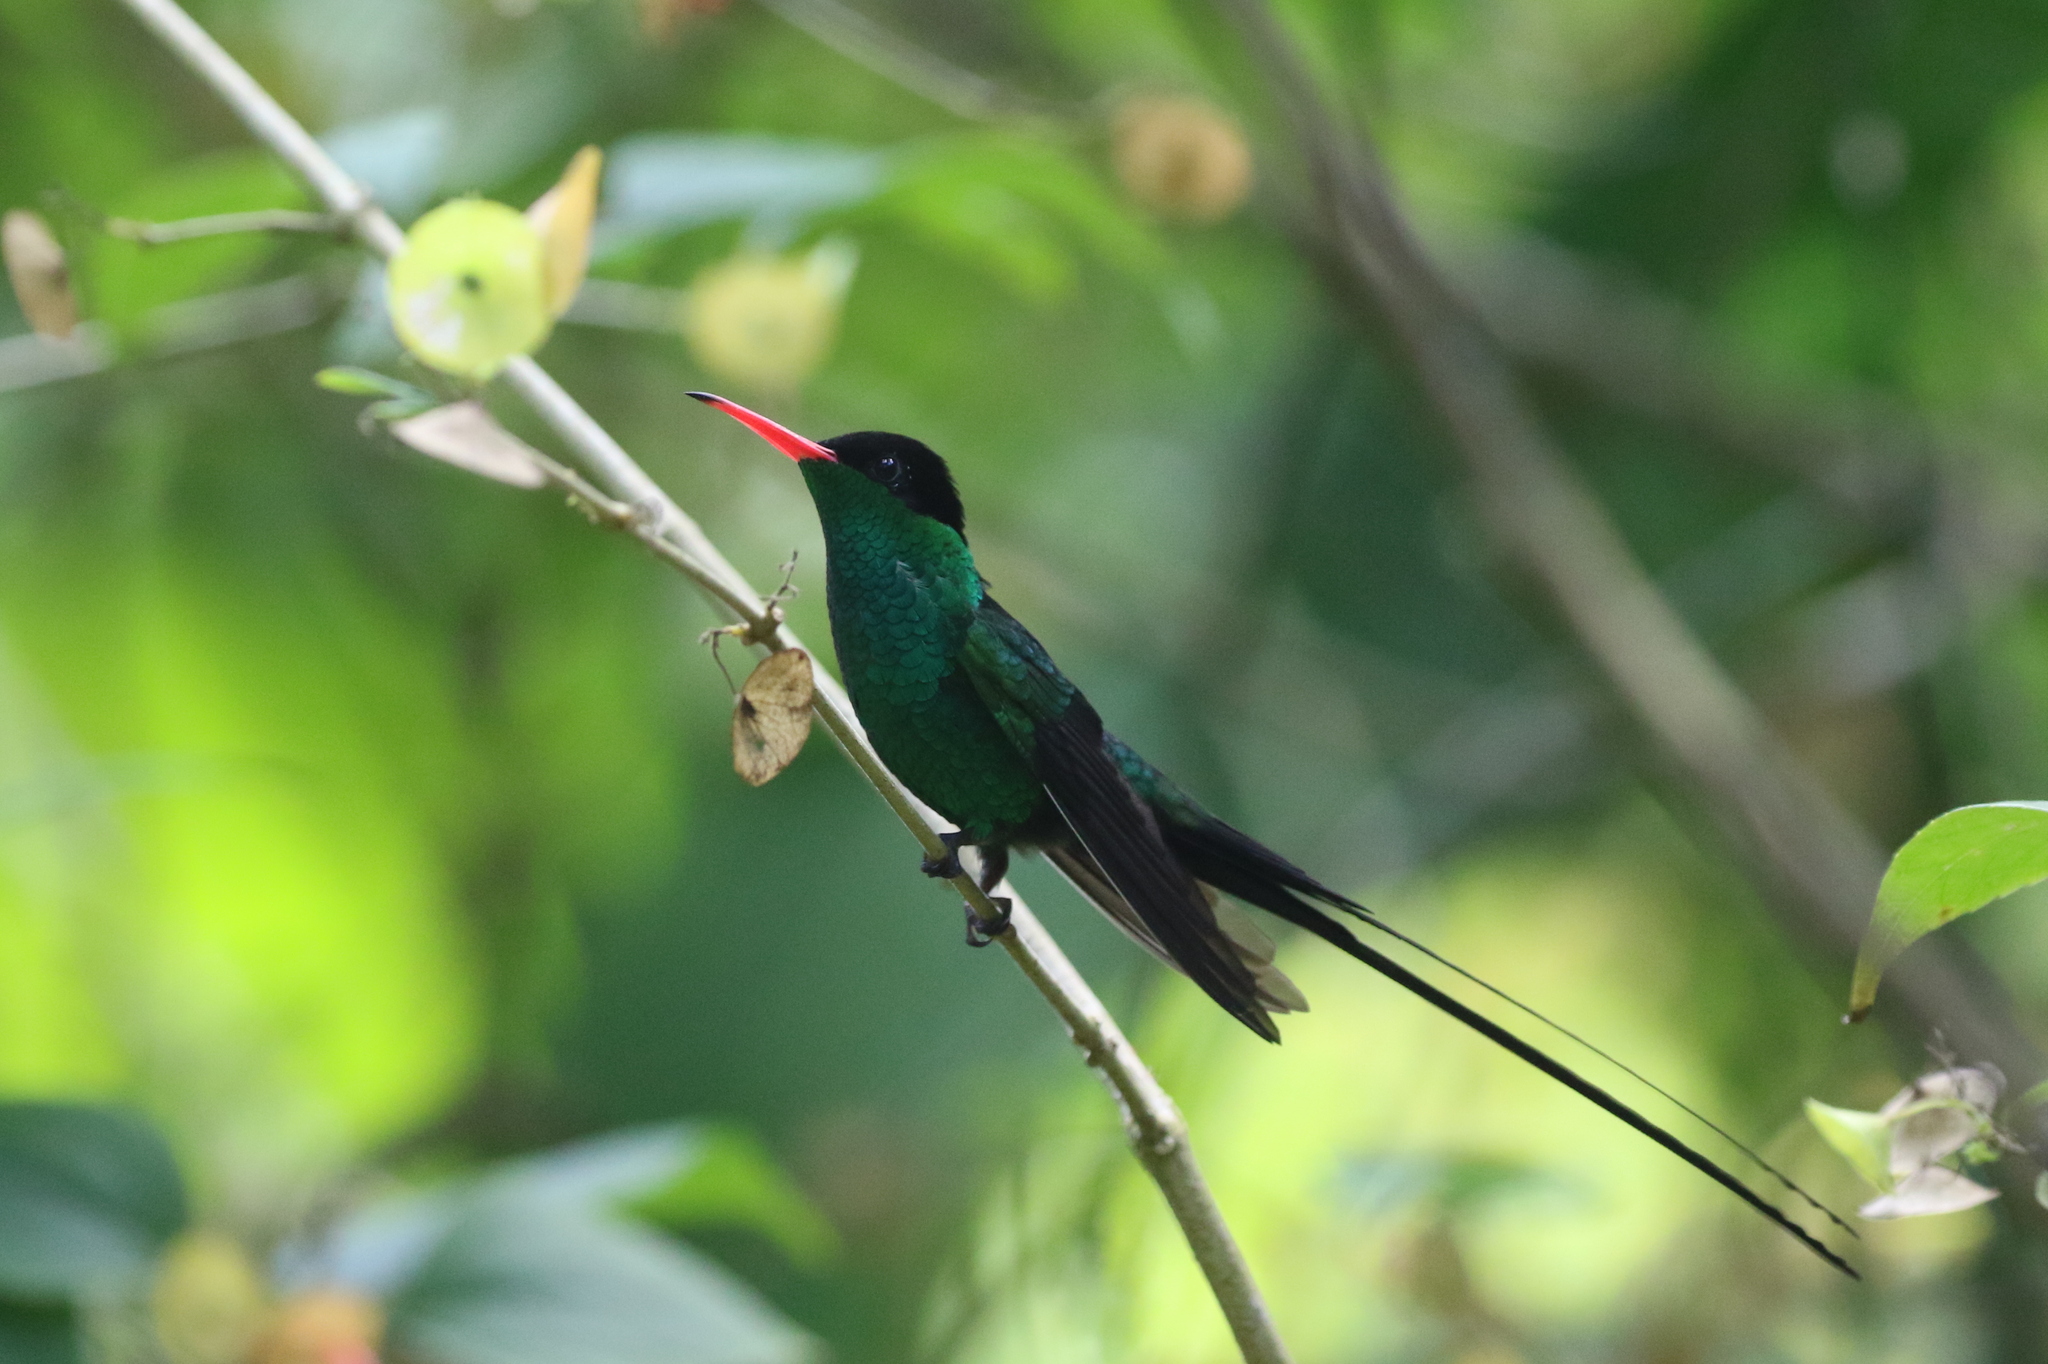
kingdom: Animalia
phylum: Chordata
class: Aves
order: Apodiformes
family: Trochilidae
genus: Trochilus
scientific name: Trochilus polytmus
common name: Red-billed streamertail
